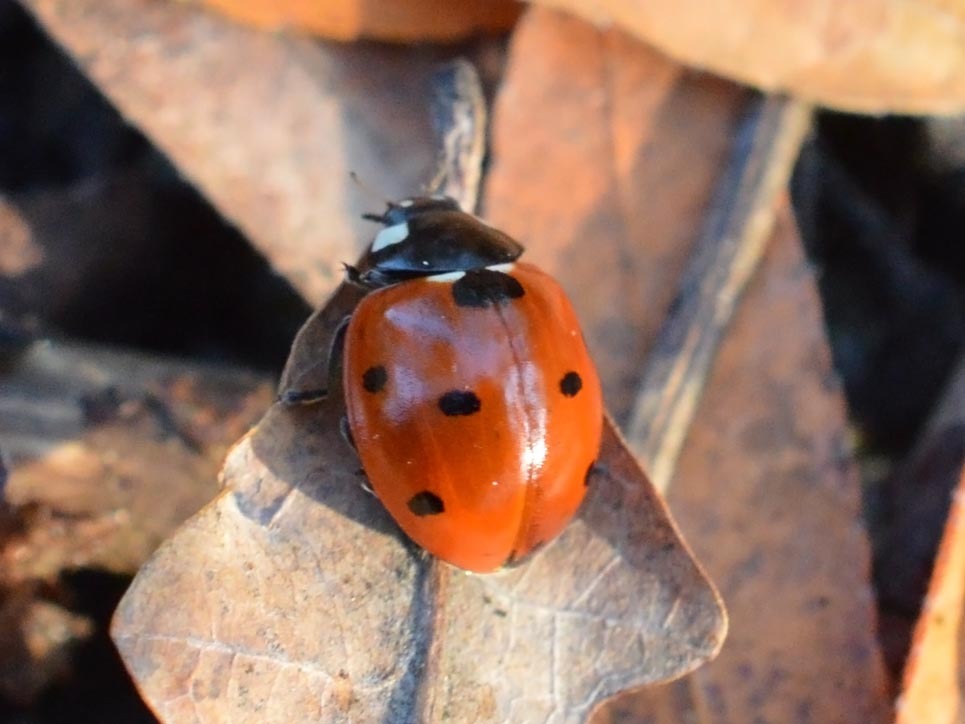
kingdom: Animalia
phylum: Arthropoda
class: Insecta
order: Coleoptera
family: Coccinellidae
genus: Coccinella
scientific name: Coccinella septempunctata
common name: Sevenspotted lady beetle
